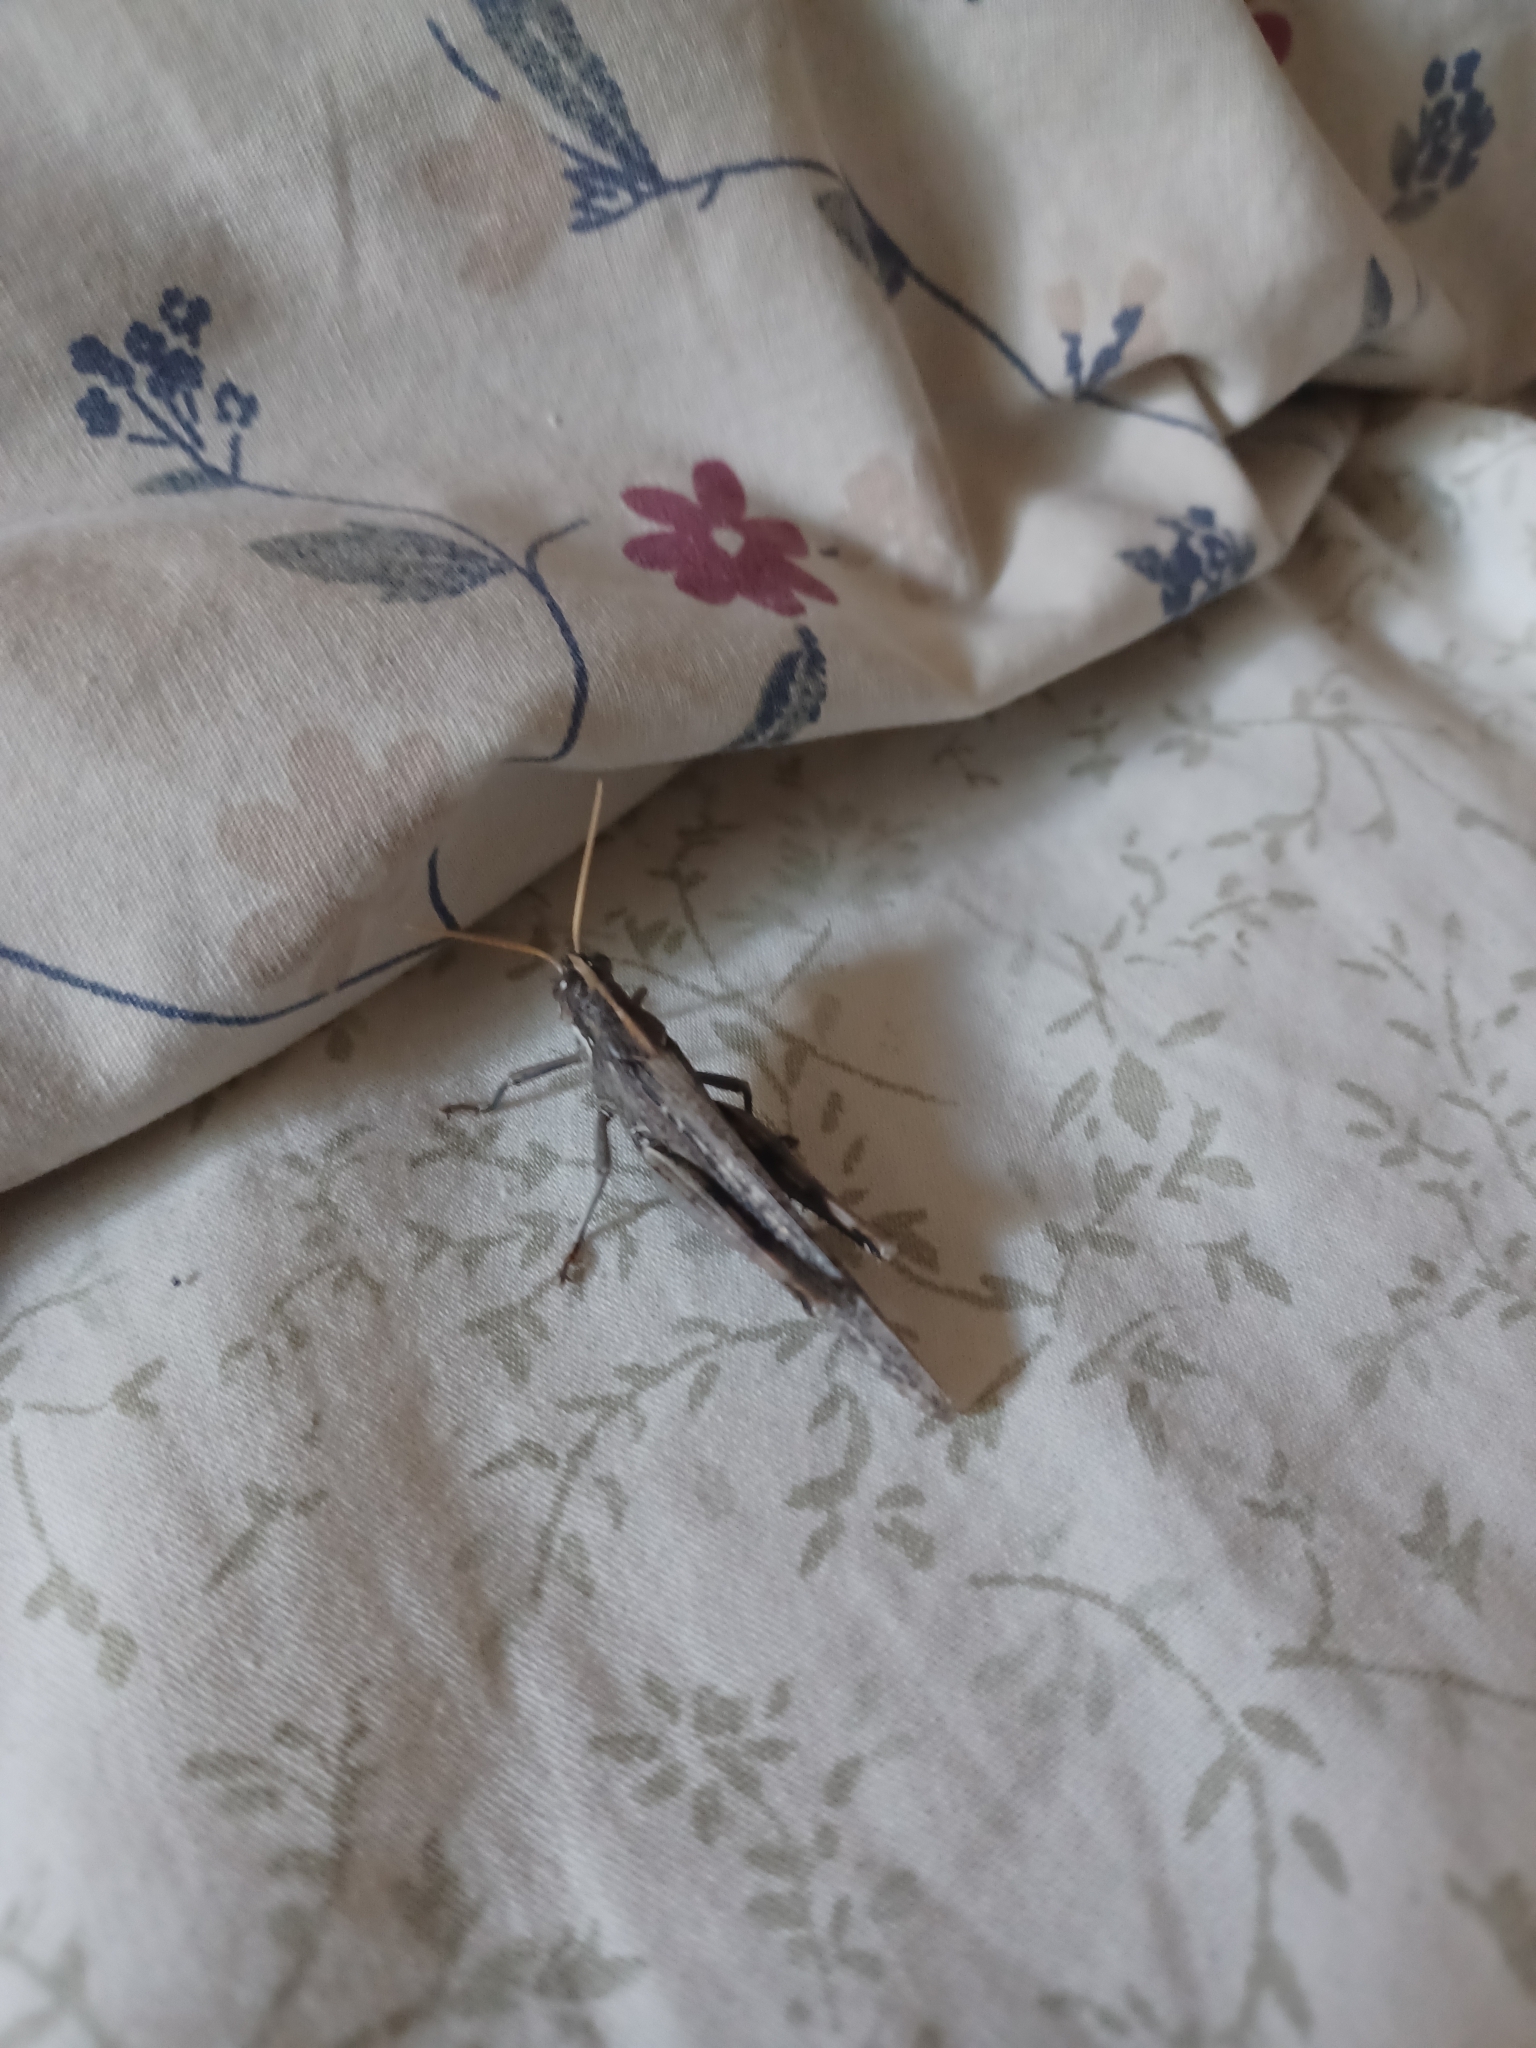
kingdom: Animalia
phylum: Arthropoda
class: Insecta
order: Orthoptera
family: Acrididae
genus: Schistocerca
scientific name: Schistocerca nitens
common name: Vagrant grasshopper
